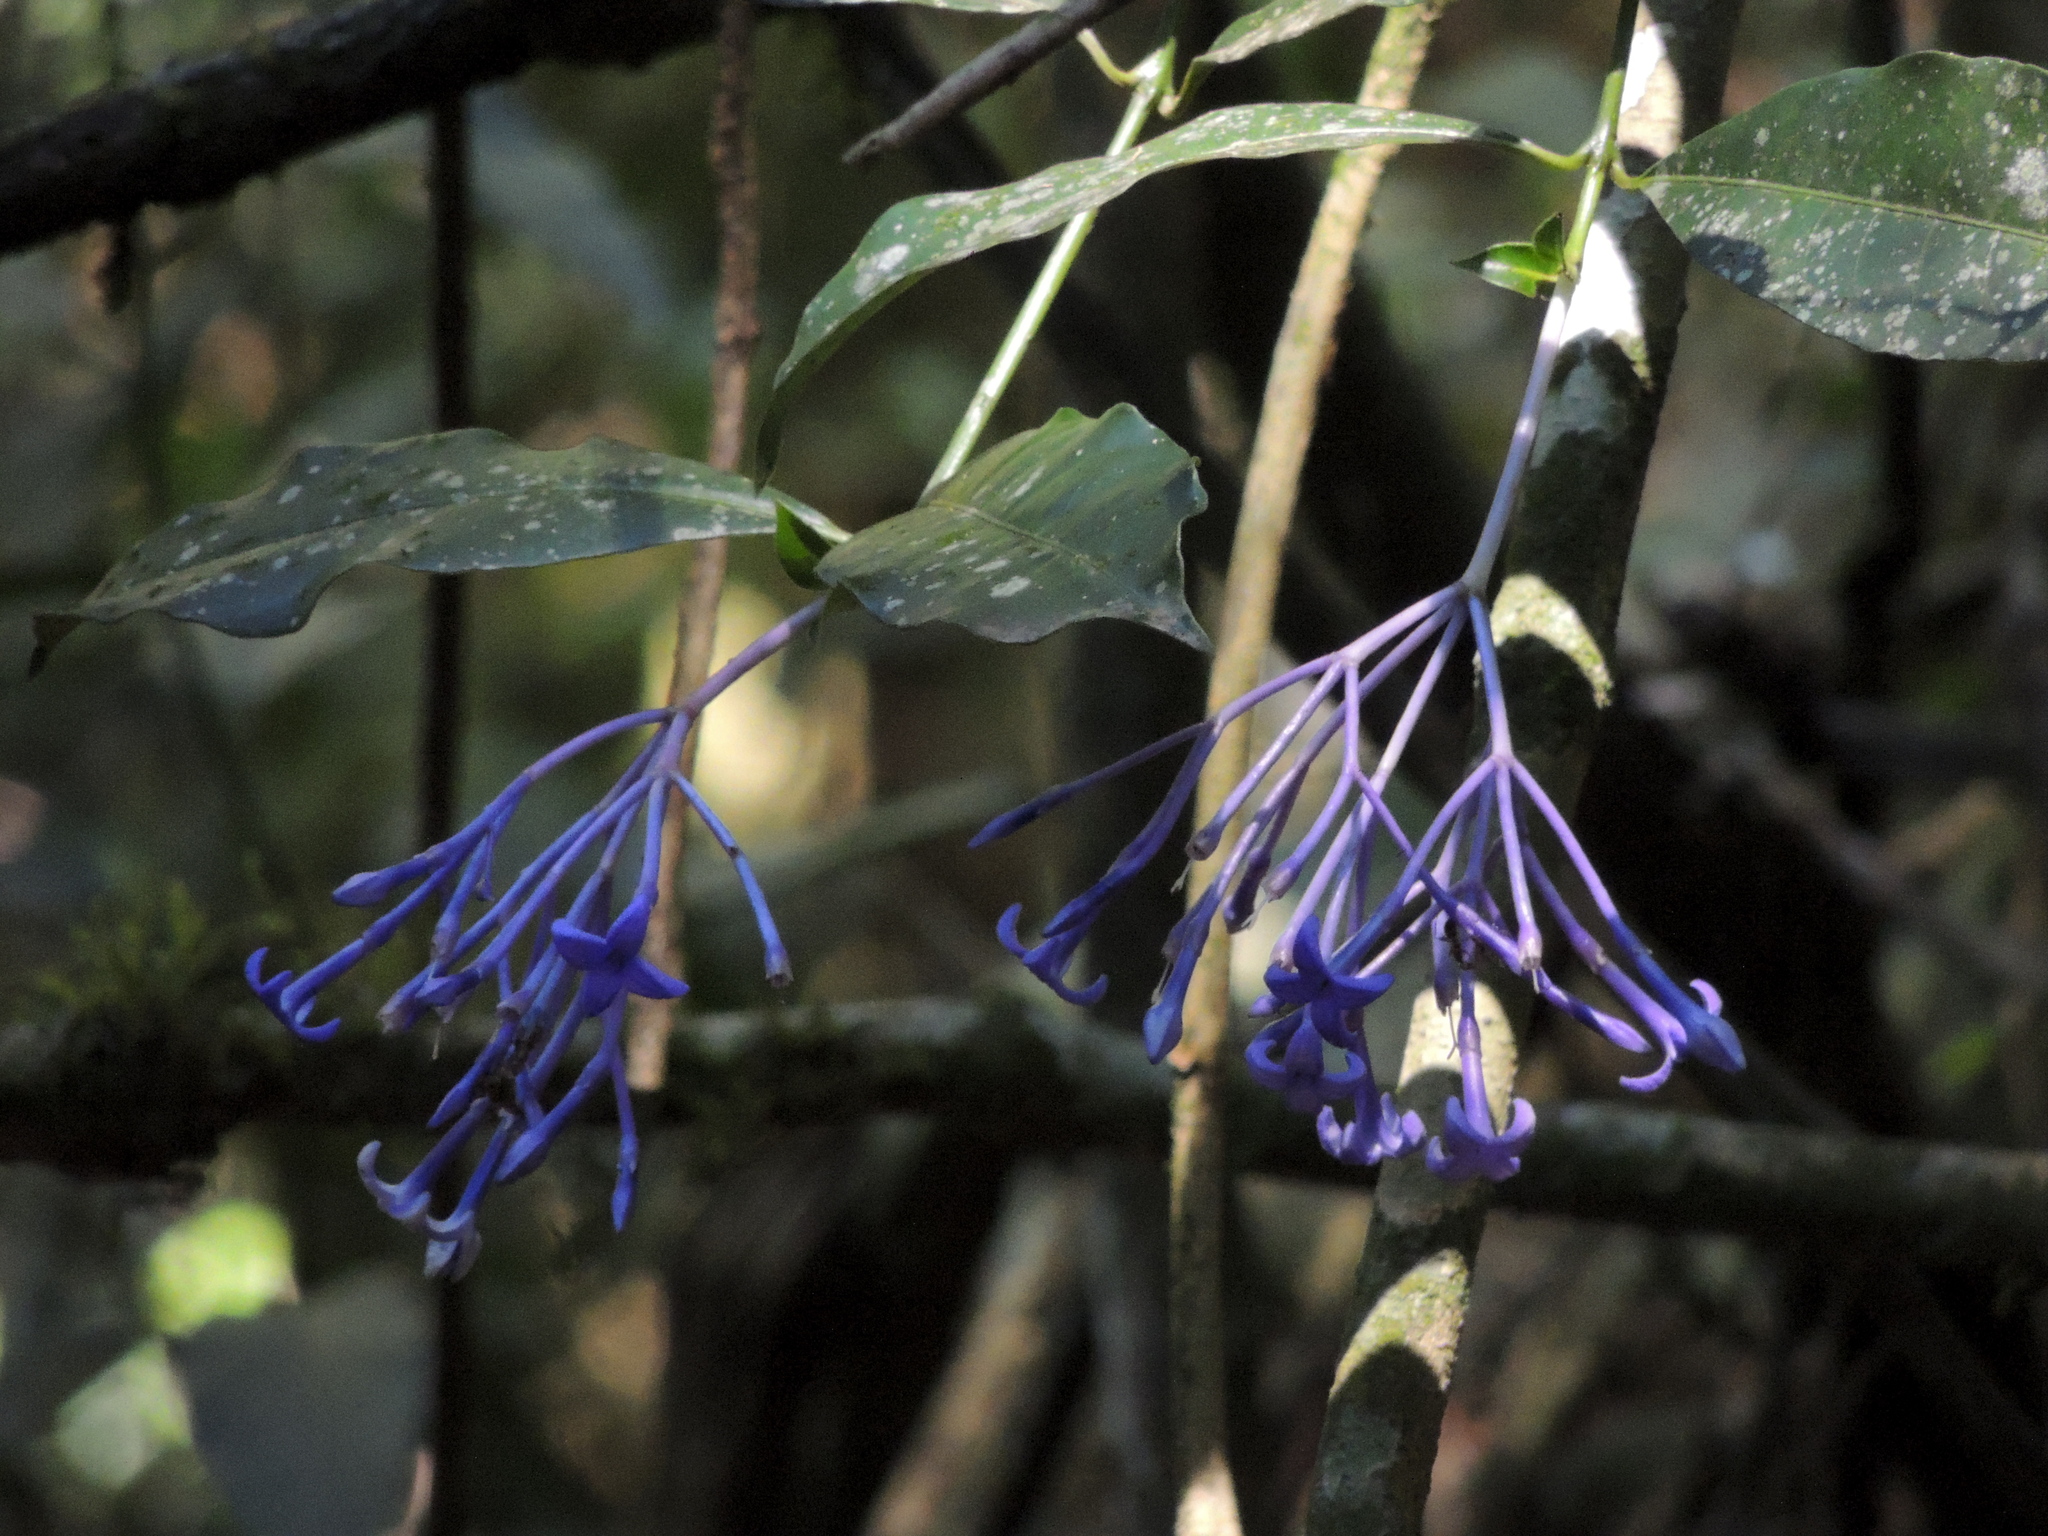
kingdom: Plantae
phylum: Tracheophyta
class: Magnoliopsida
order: Gentianales
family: Rubiaceae
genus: Faramea
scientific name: Faramea hyacinthina
